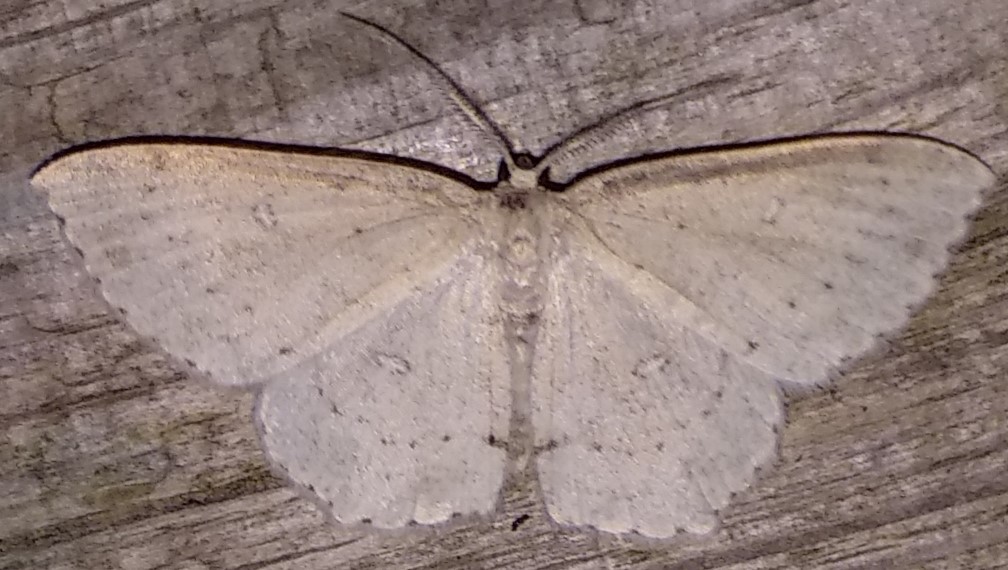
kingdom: Animalia
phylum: Arthropoda
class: Insecta
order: Lepidoptera
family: Geometridae
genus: Cyclophora
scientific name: Cyclophora pendulinaria
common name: Sweet fern geometer
